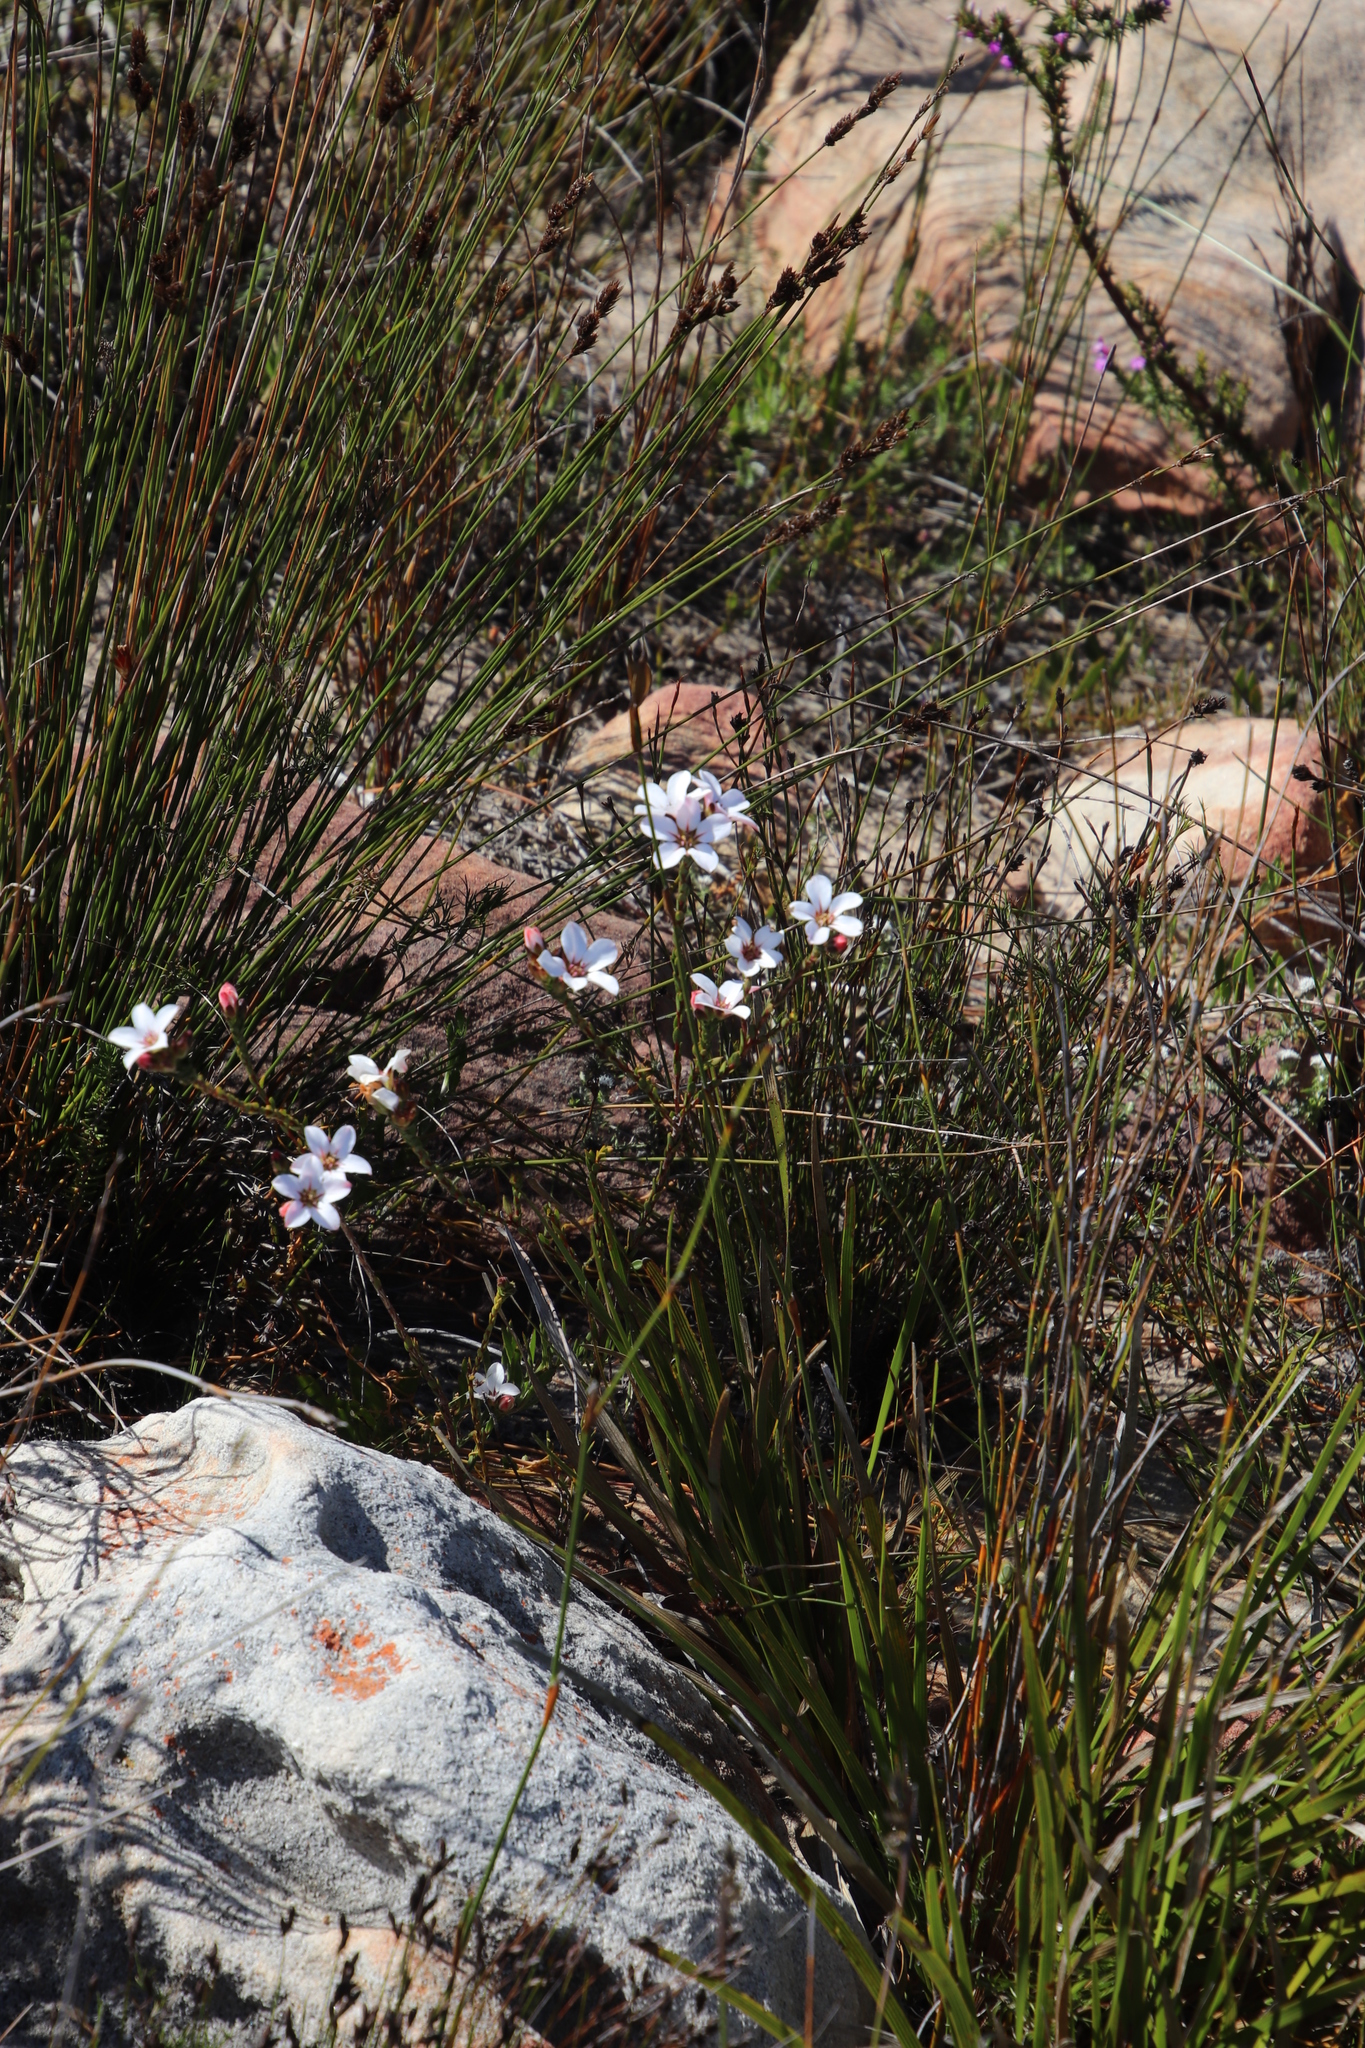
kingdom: Plantae
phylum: Tracheophyta
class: Magnoliopsida
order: Sapindales
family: Rutaceae
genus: Adenandra
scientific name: Adenandra villosa
